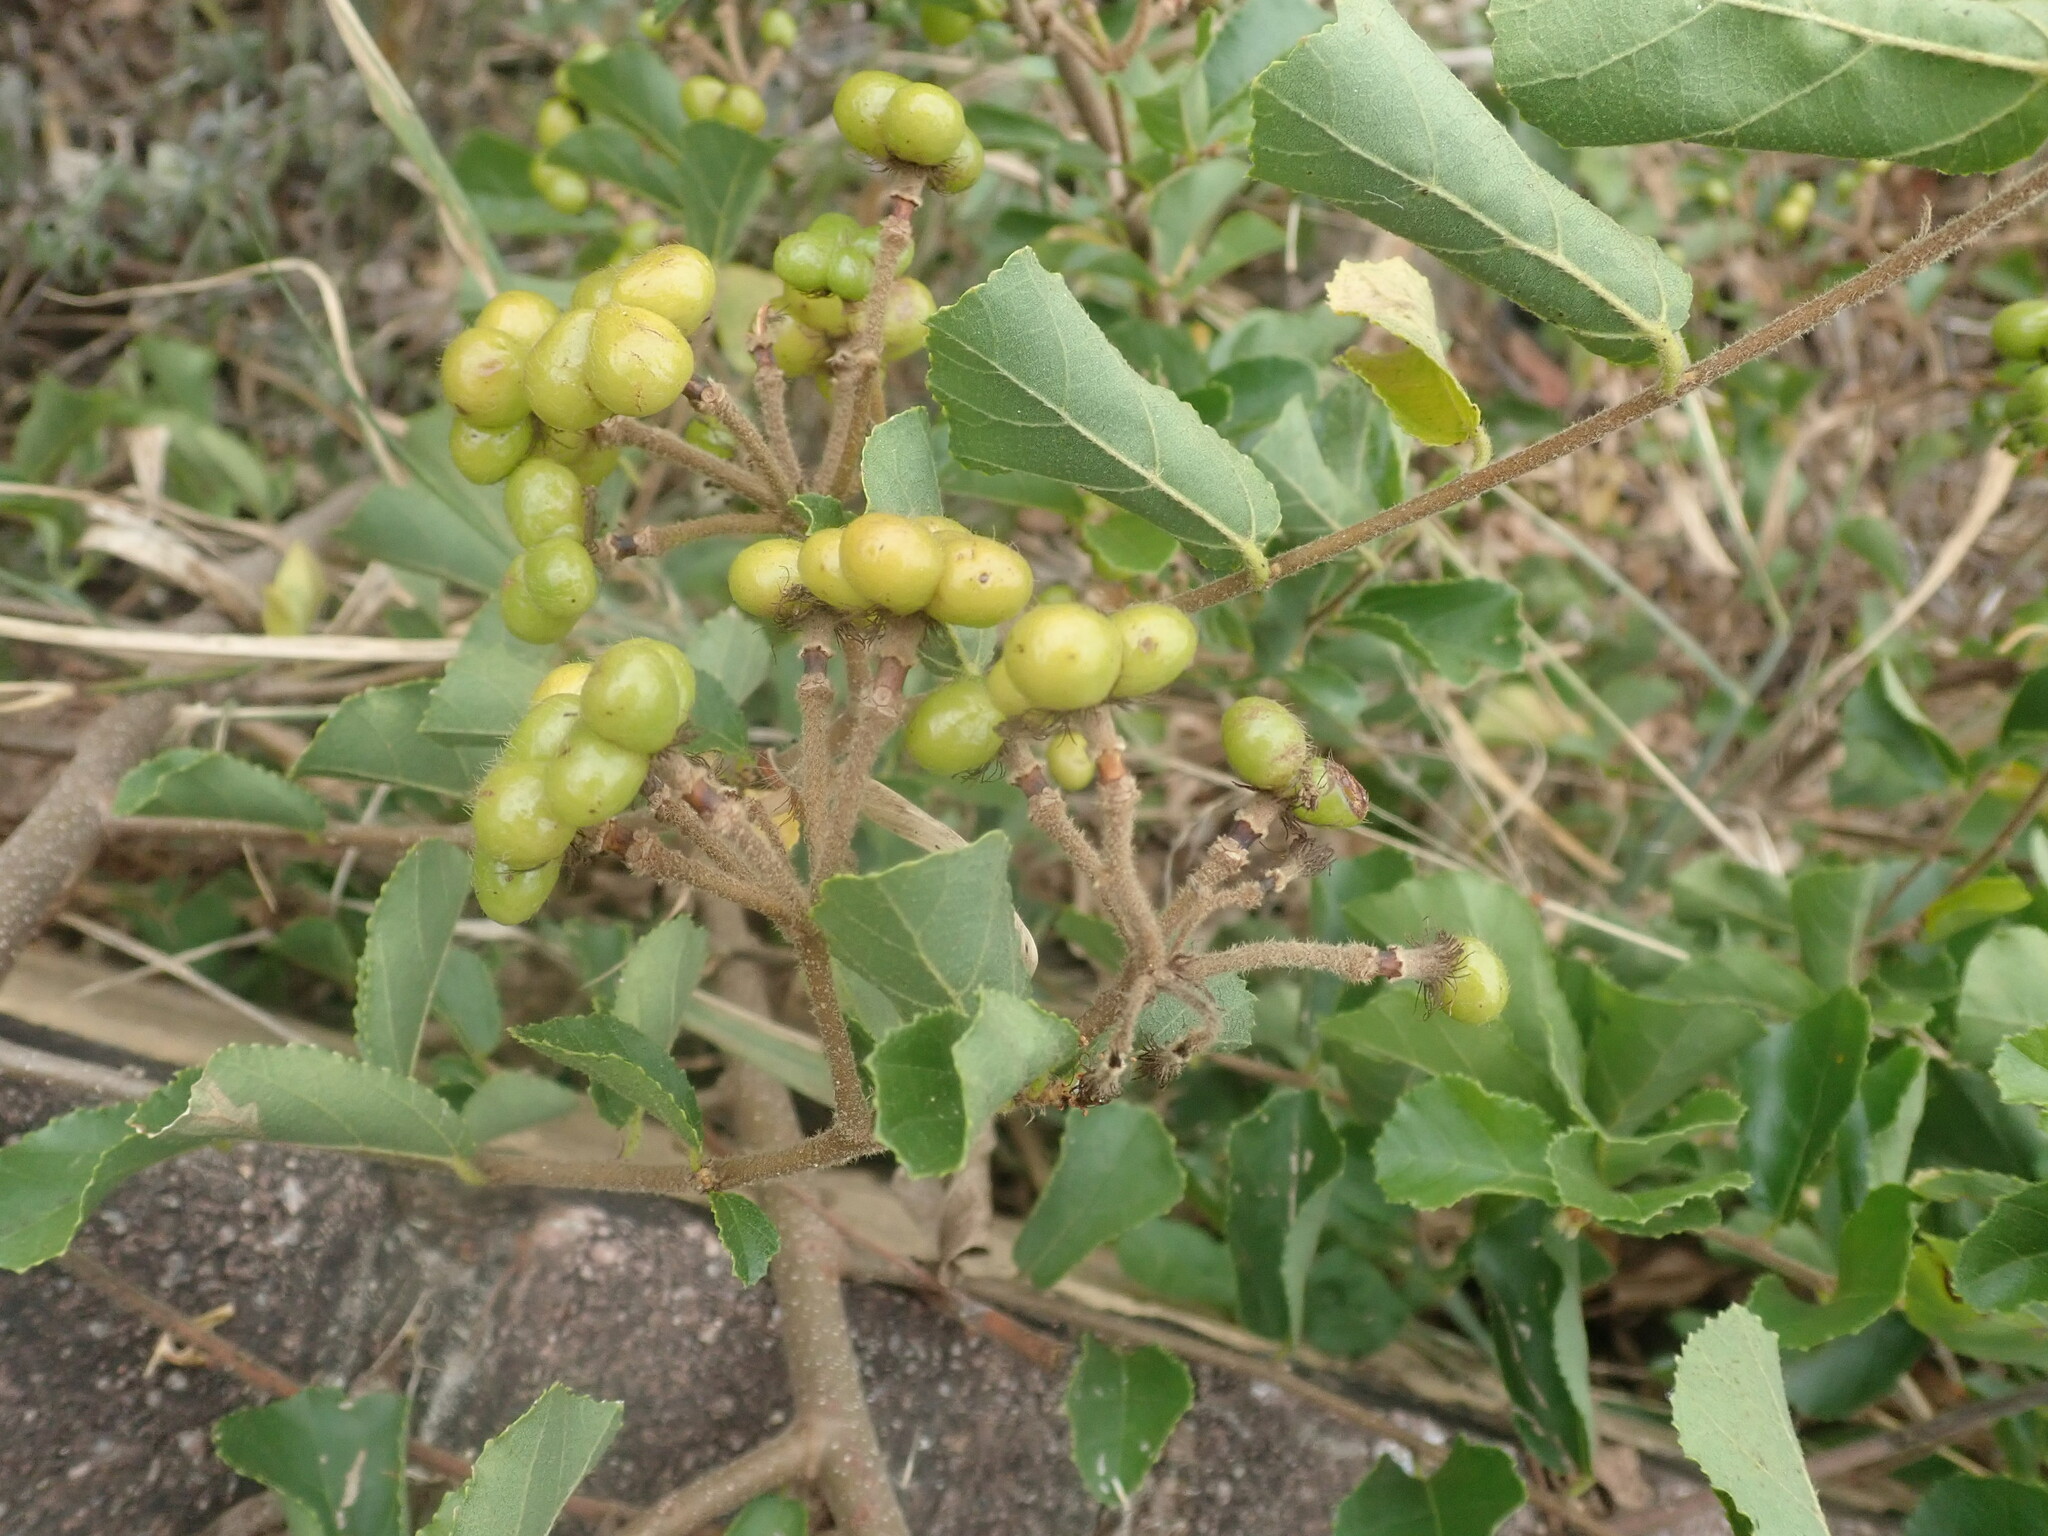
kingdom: Plantae
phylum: Tracheophyta
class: Magnoliopsida
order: Malvales
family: Malvaceae
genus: Grewia
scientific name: Grewia occidentalis
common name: Crossberry
